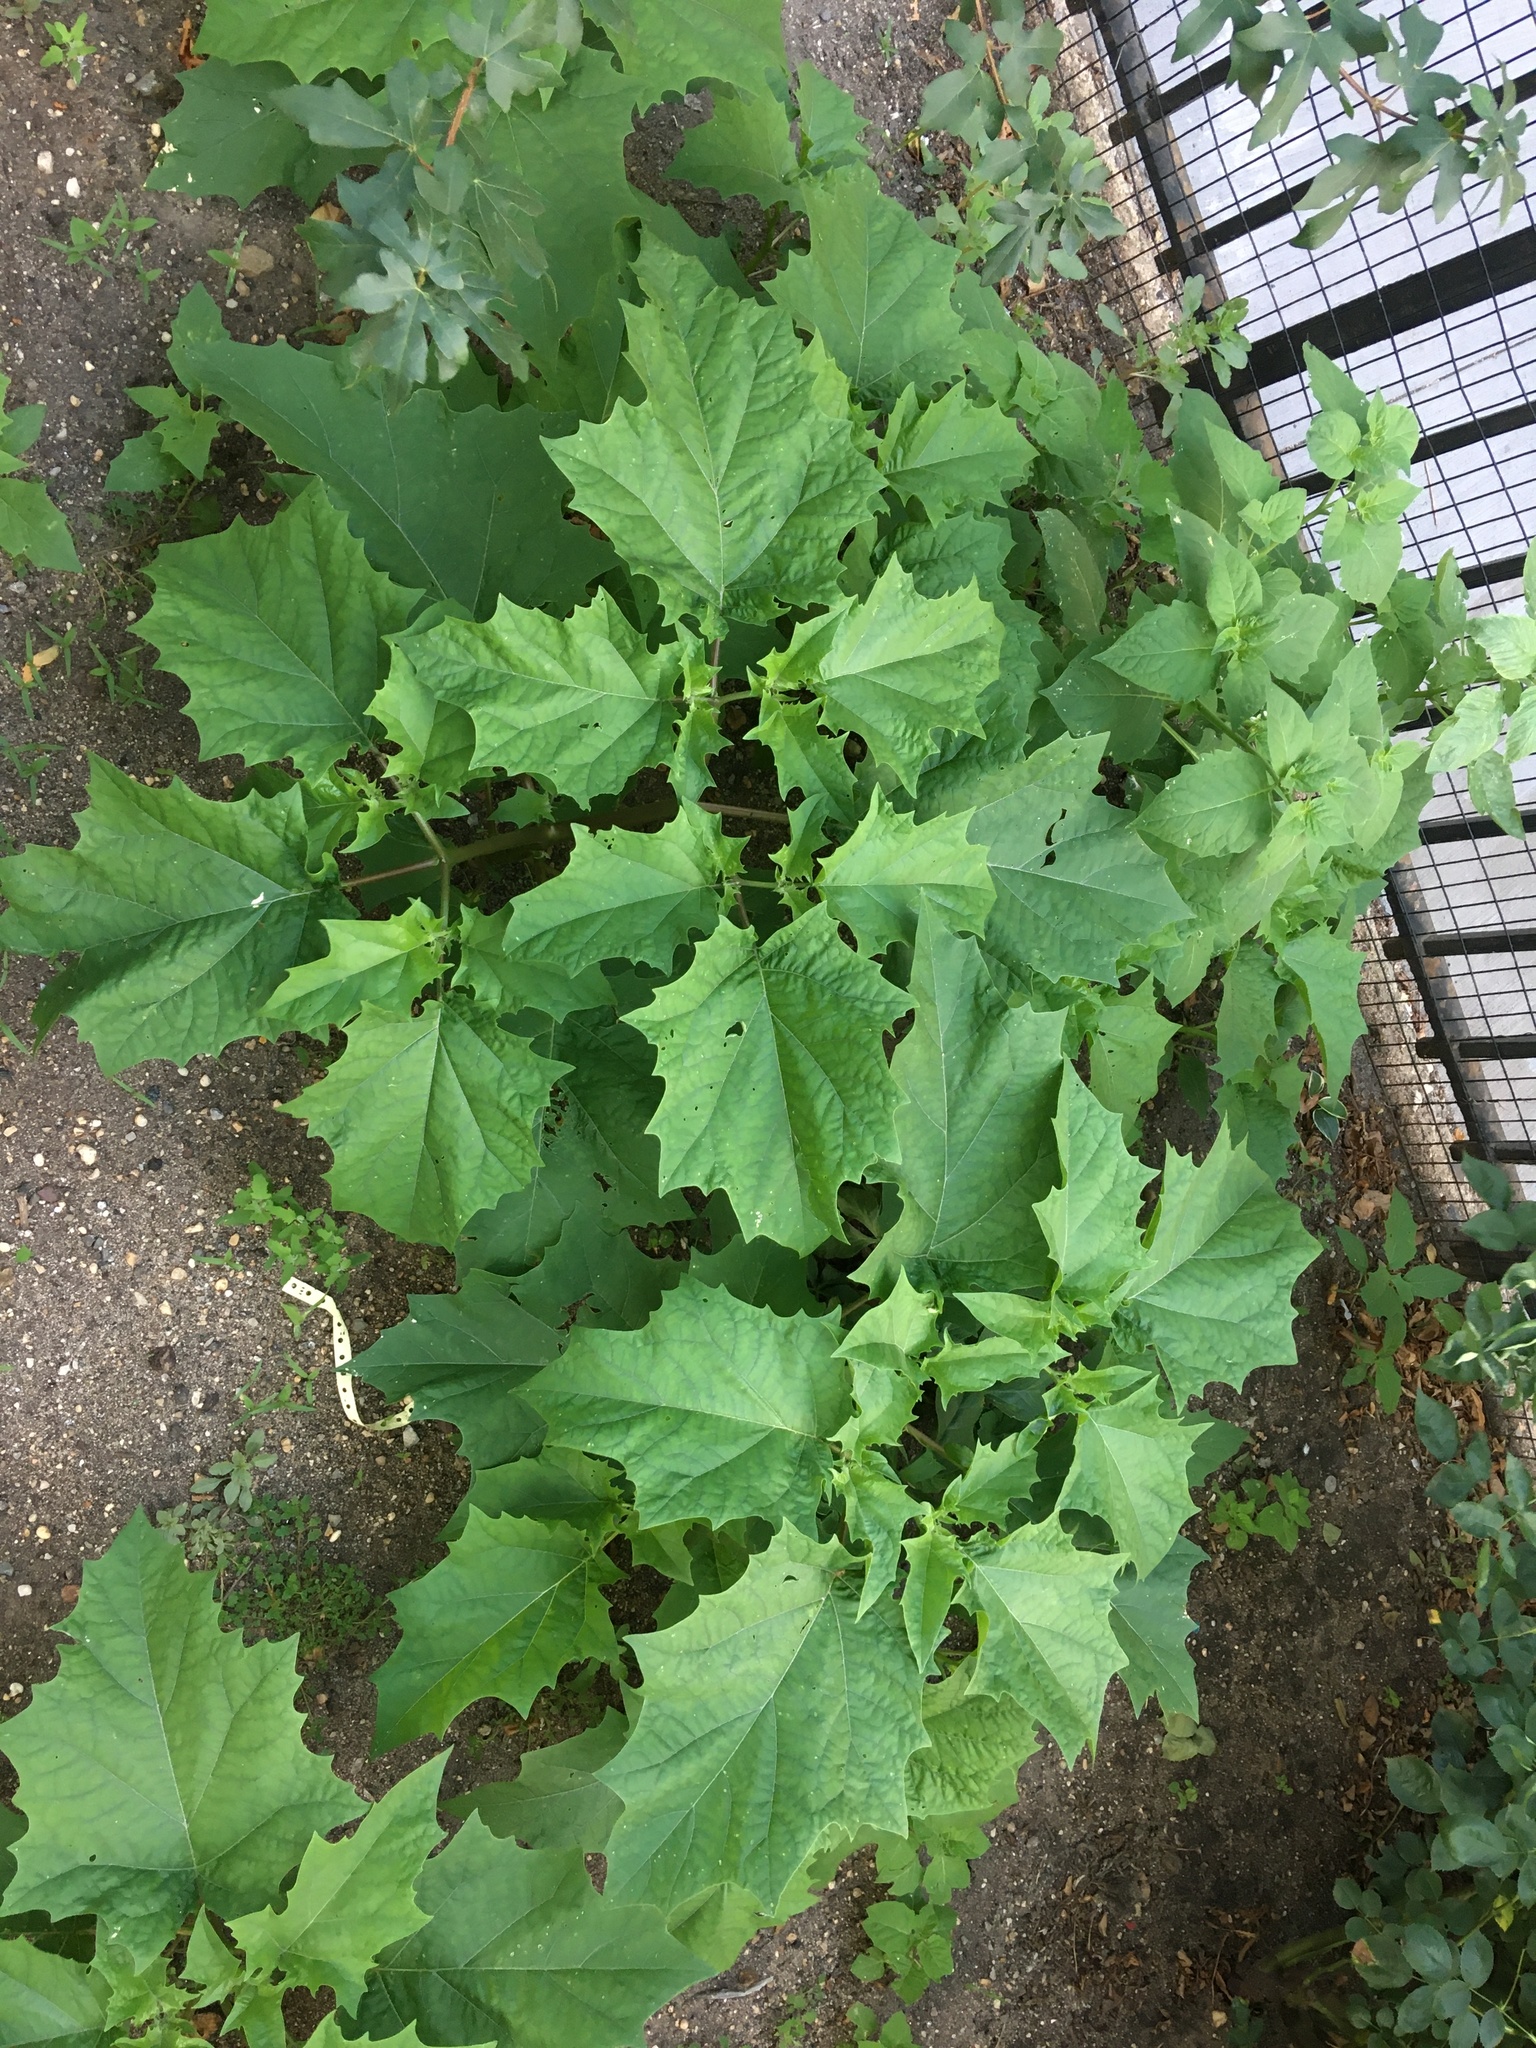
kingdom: Plantae
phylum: Tracheophyta
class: Magnoliopsida
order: Solanales
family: Solanaceae
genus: Datura
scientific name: Datura stramonium
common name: Thorn-apple
